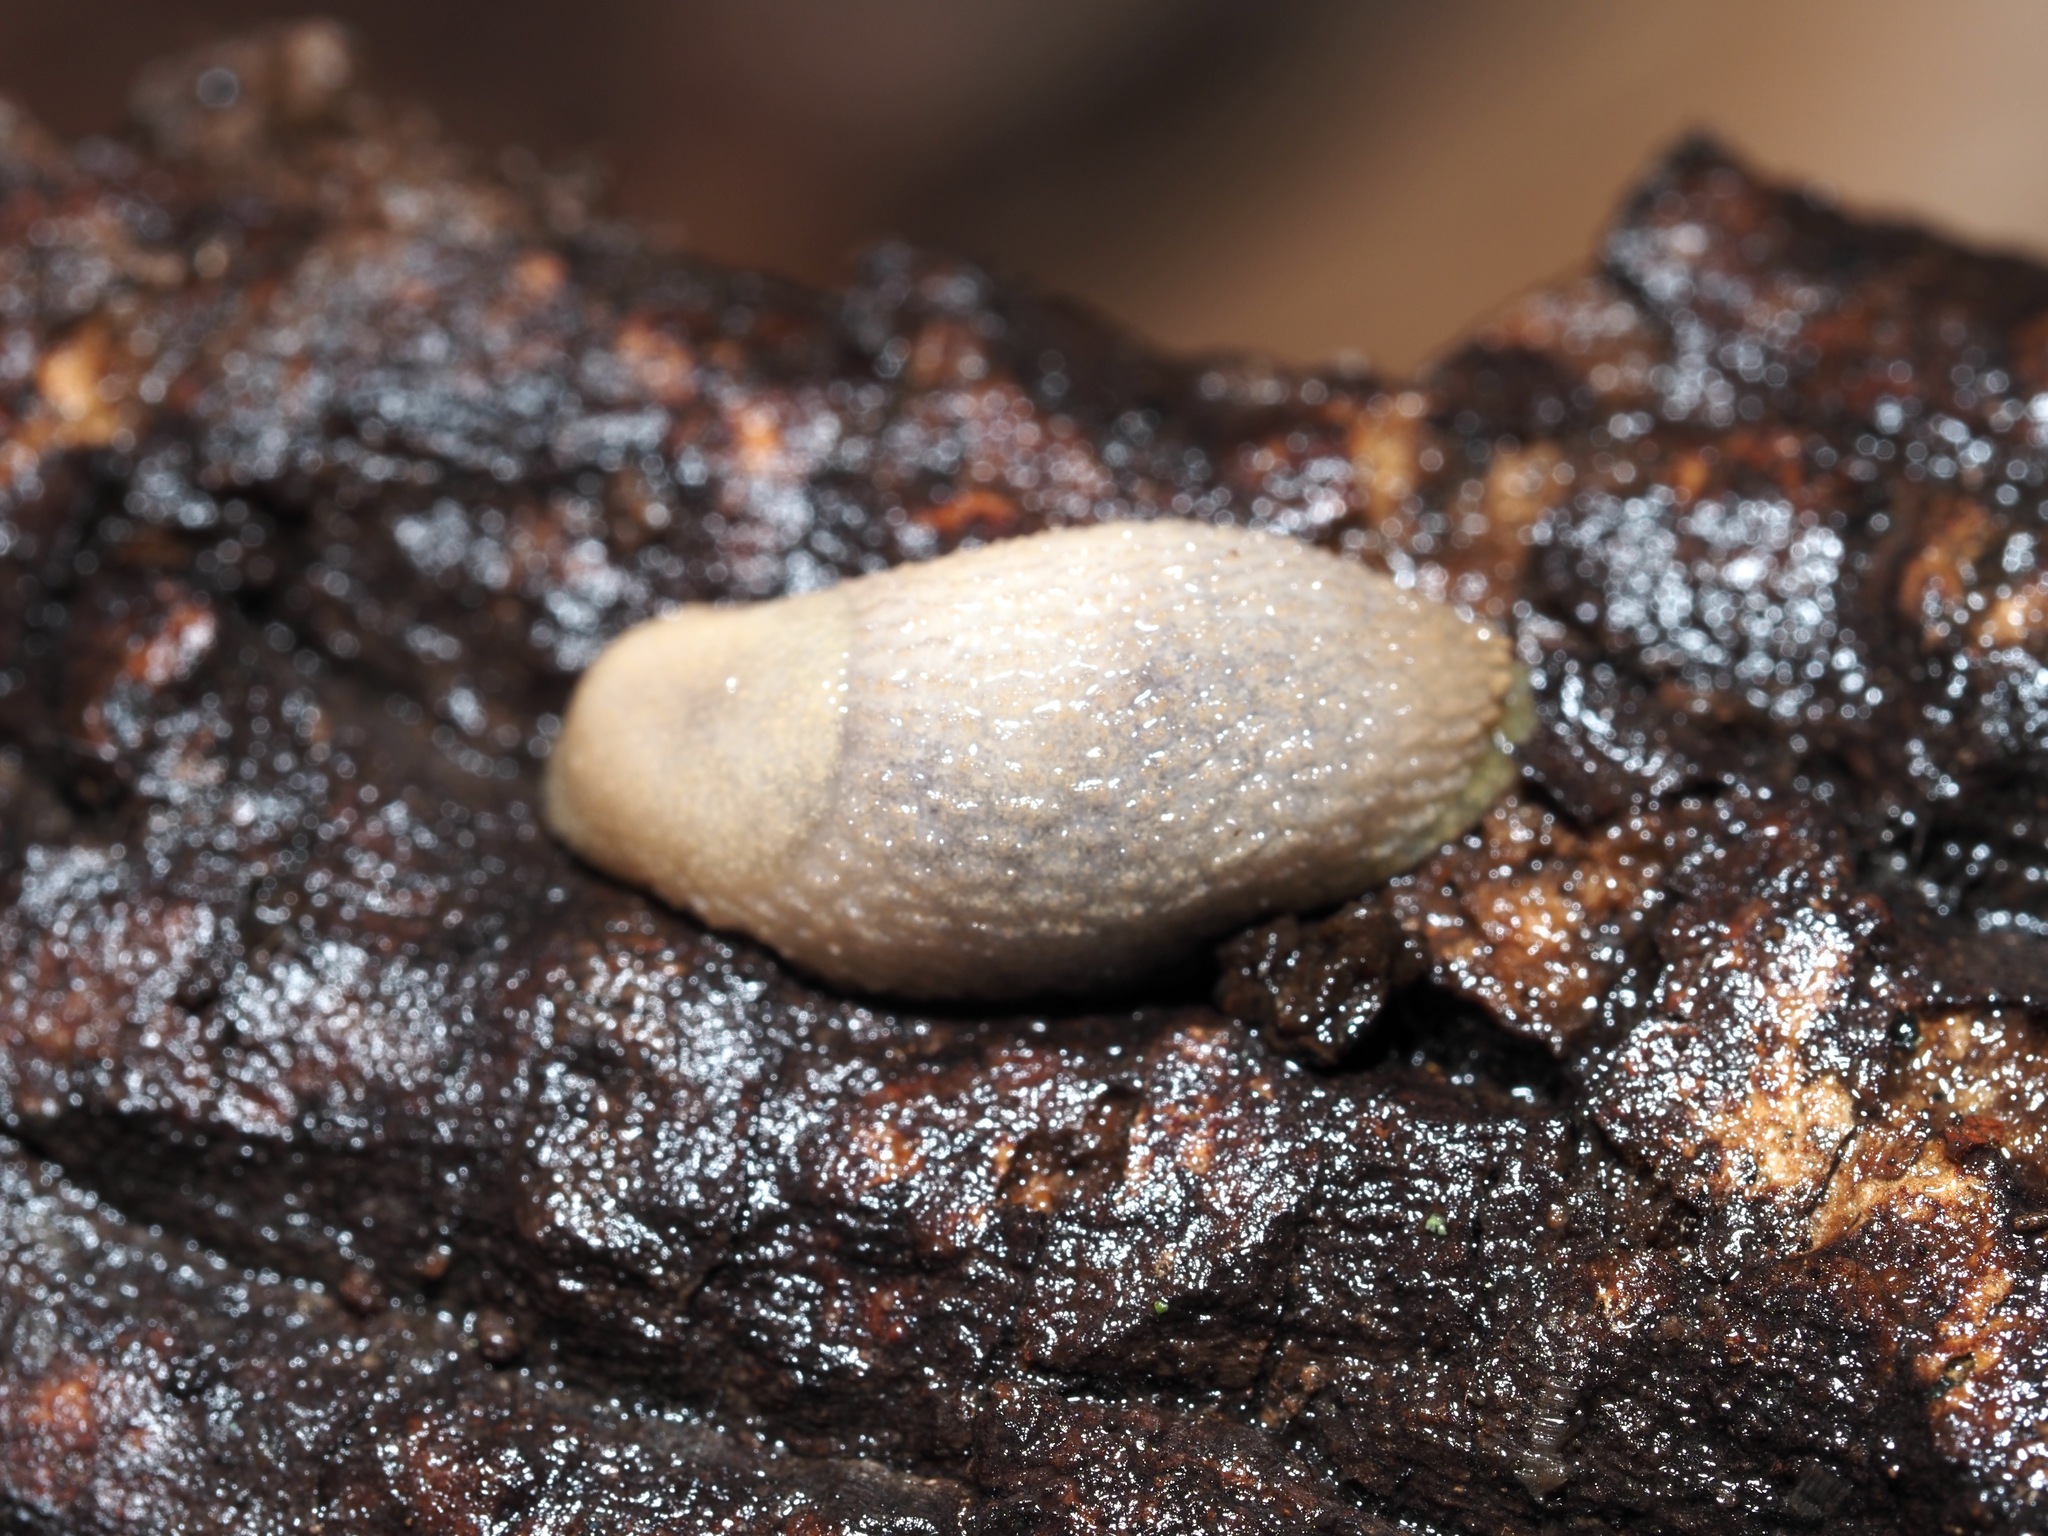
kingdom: Animalia
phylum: Mollusca
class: Gastropoda
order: Stylommatophora
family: Arionidae
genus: Arion
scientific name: Arion intermedius
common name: Hedgehog slug
